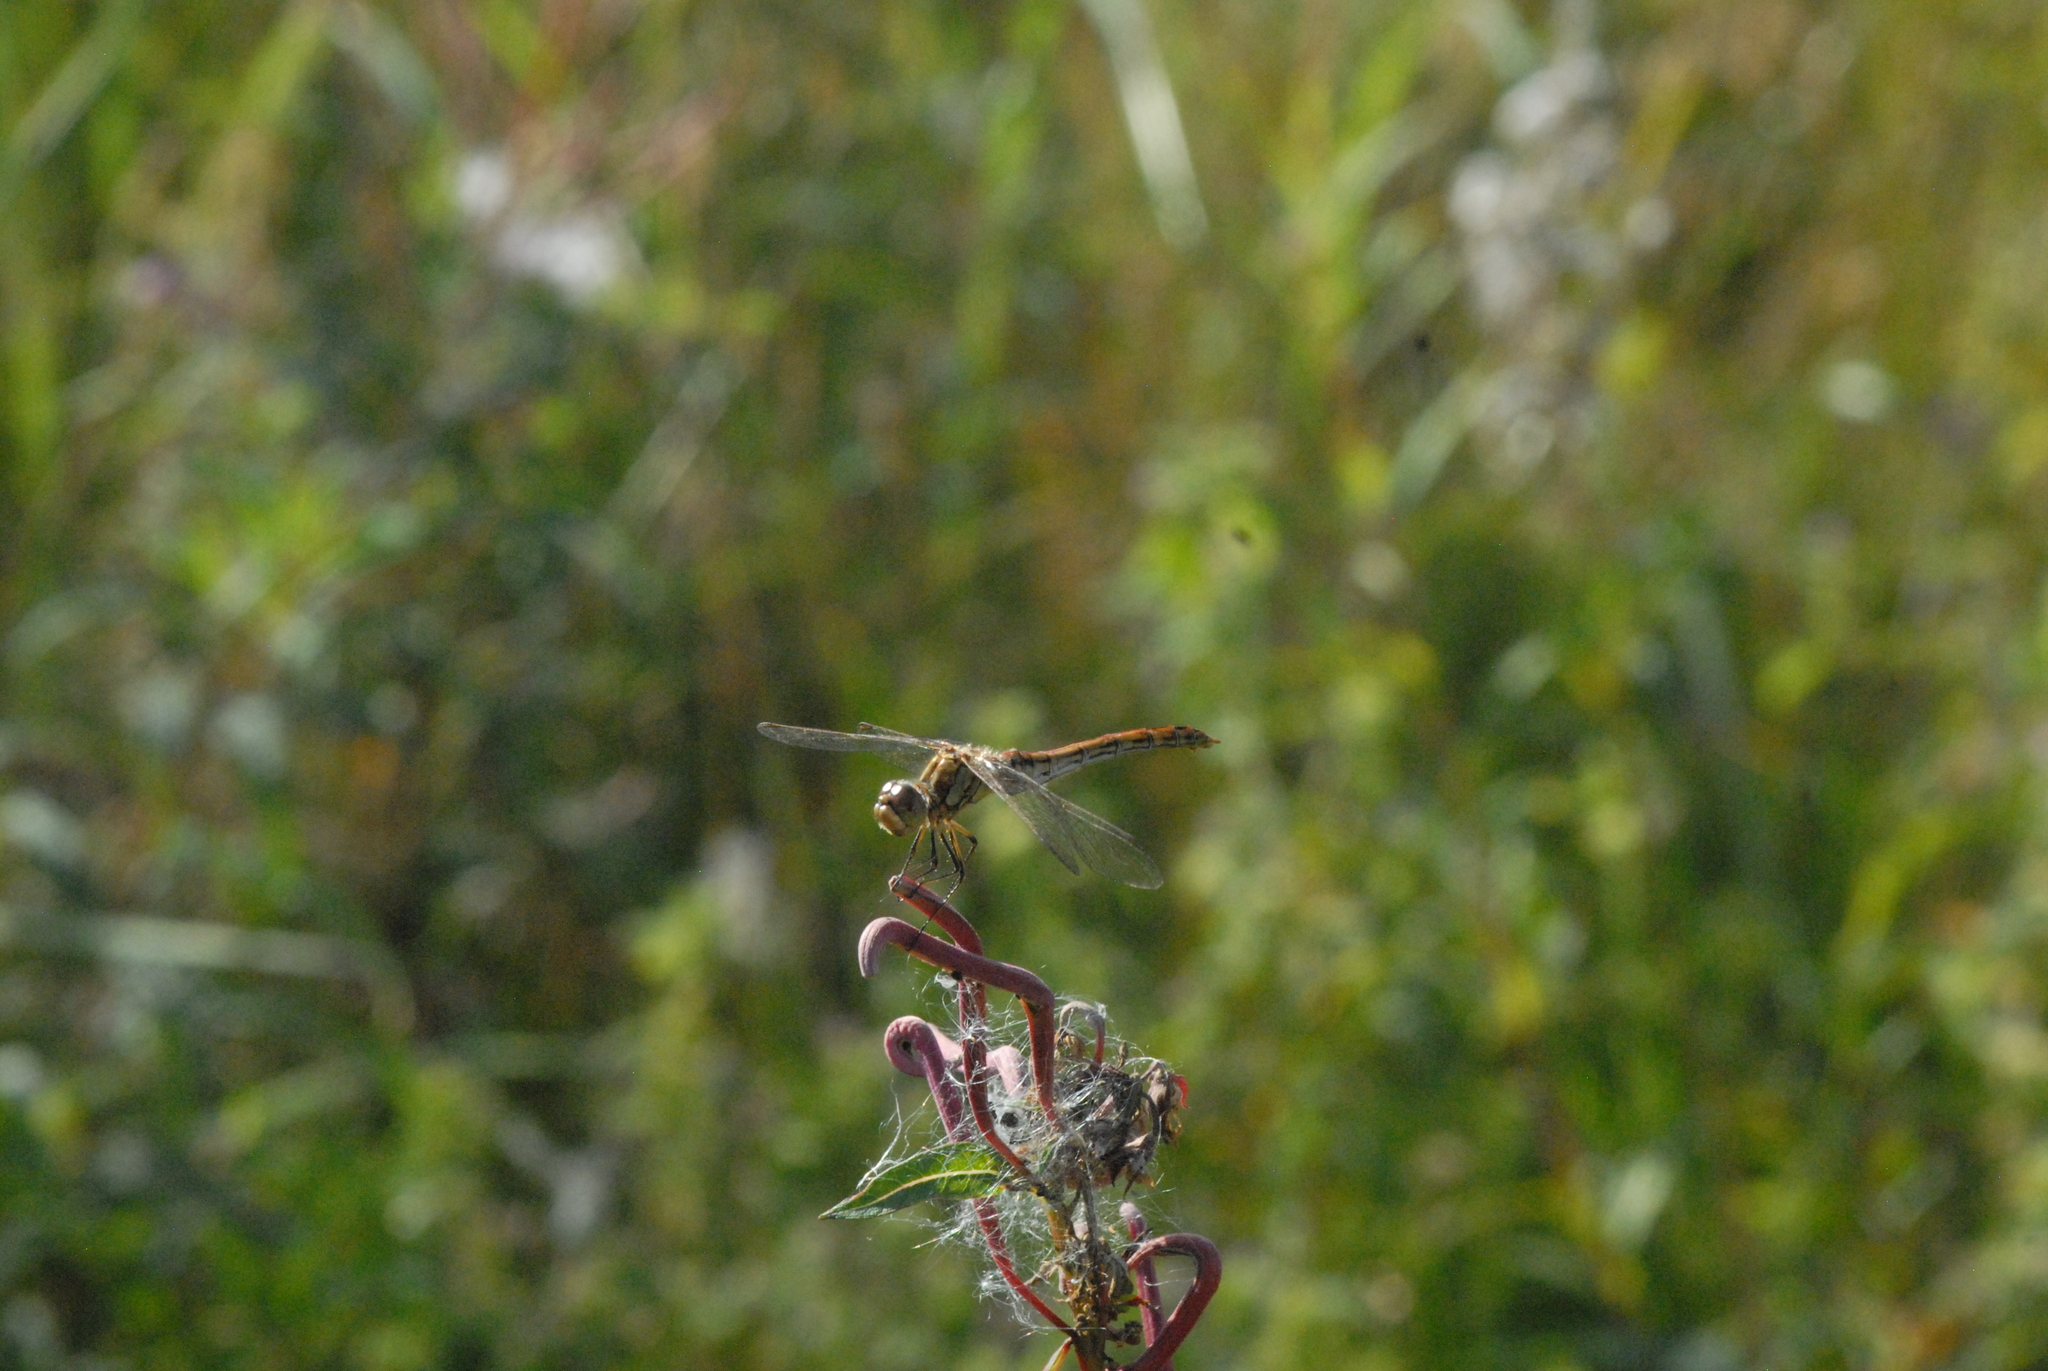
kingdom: Animalia
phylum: Arthropoda
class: Insecta
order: Odonata
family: Libellulidae
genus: Sympetrum
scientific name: Sympetrum vulgatum
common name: Vagrant darter
